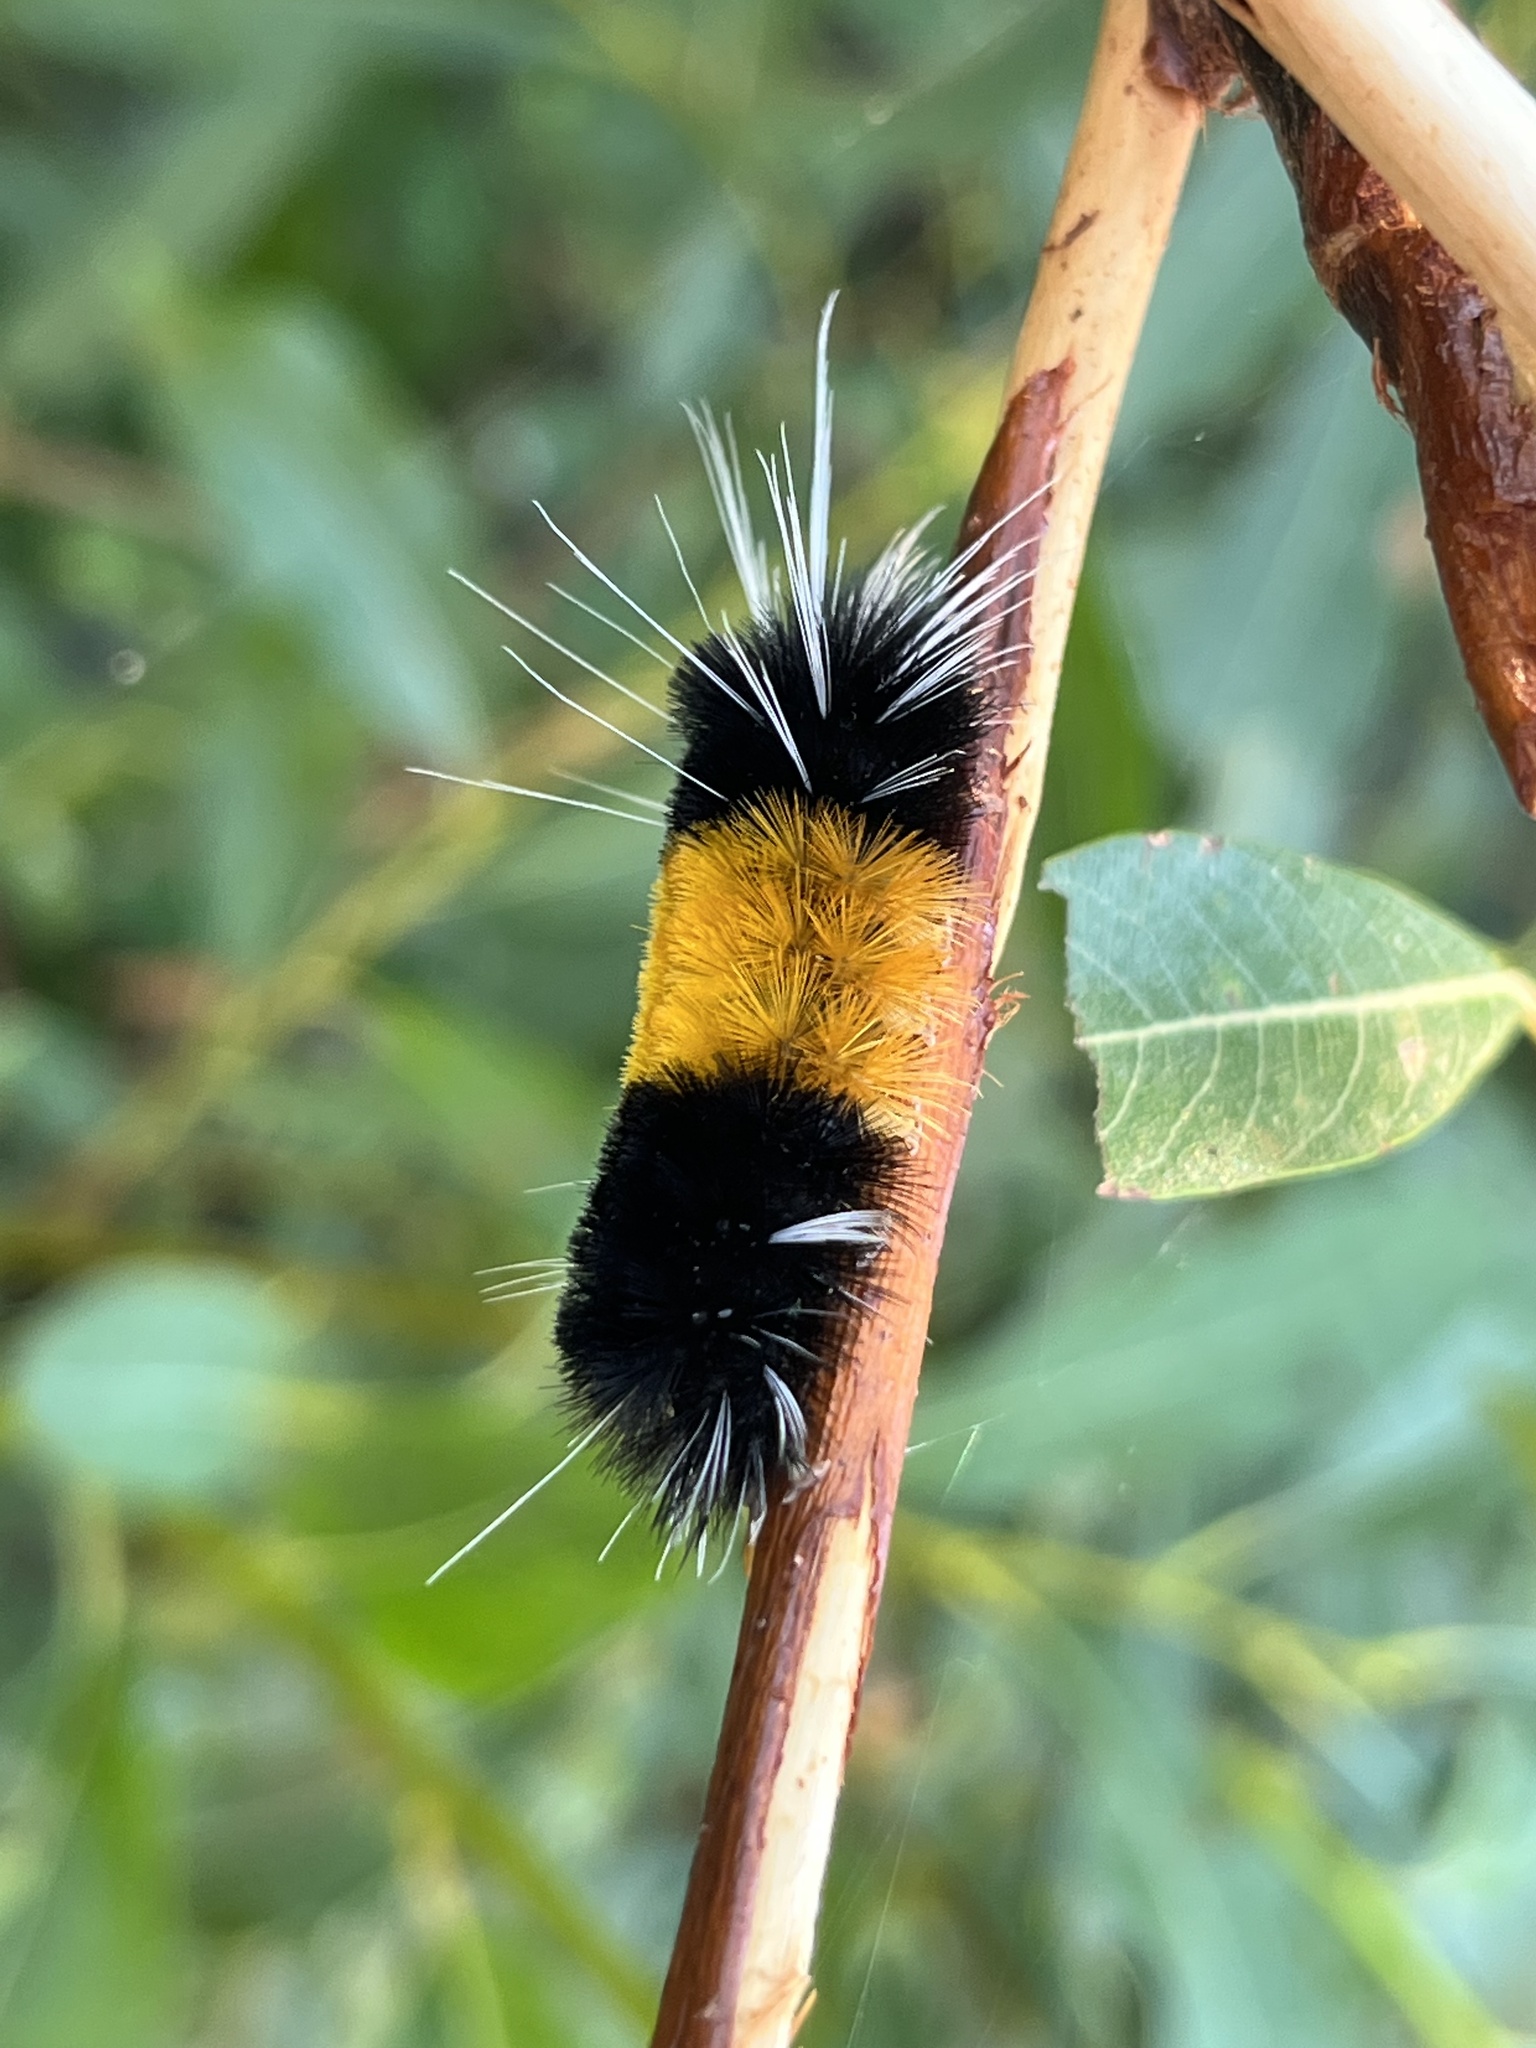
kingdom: Animalia
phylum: Arthropoda
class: Insecta
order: Lepidoptera
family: Erebidae
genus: Lophocampa
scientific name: Lophocampa maculata
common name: Spotted tussock moth
